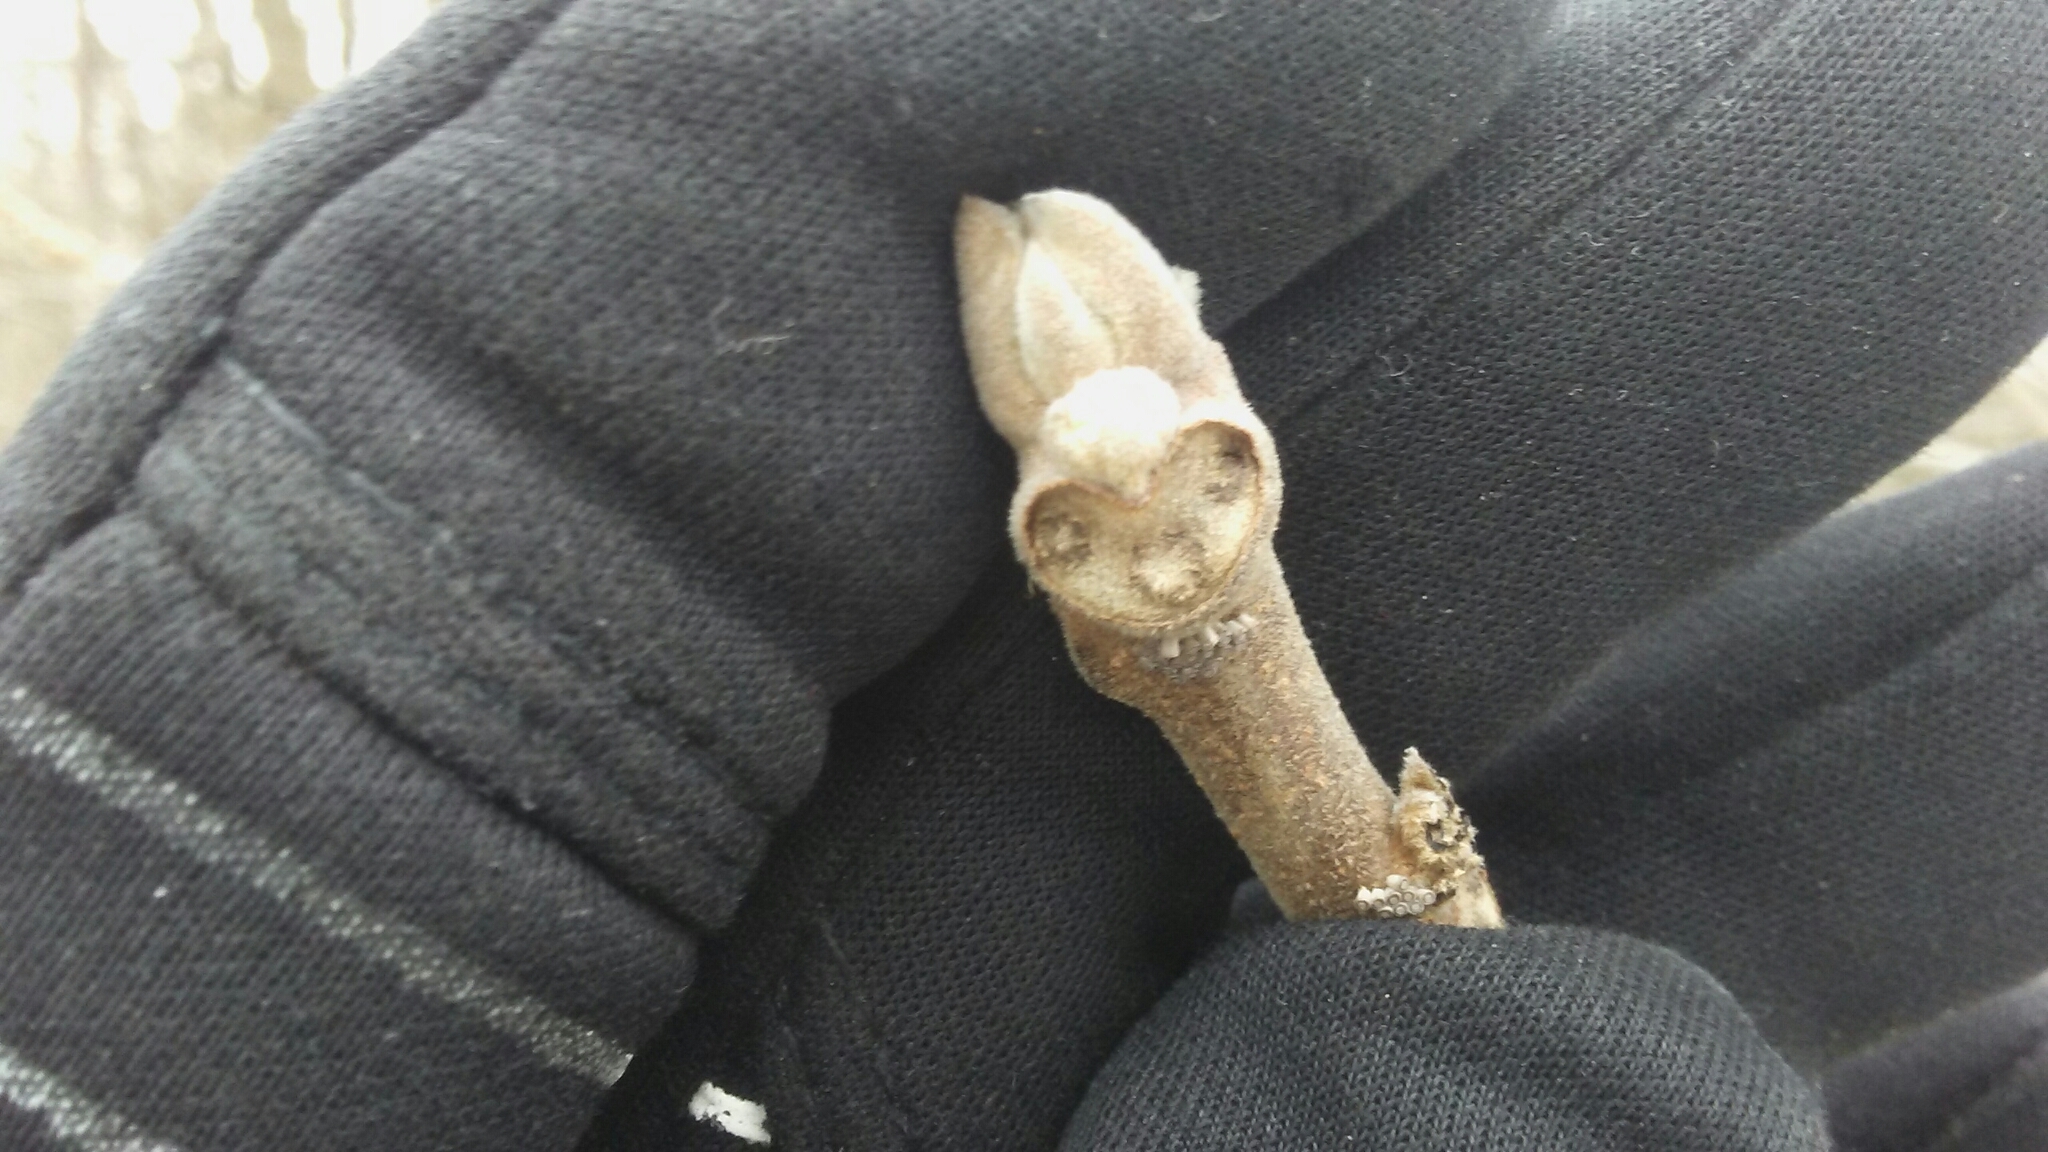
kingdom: Plantae
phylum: Tracheophyta
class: Magnoliopsida
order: Fagales
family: Juglandaceae
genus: Juglans
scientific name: Juglans nigra
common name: Black walnut
